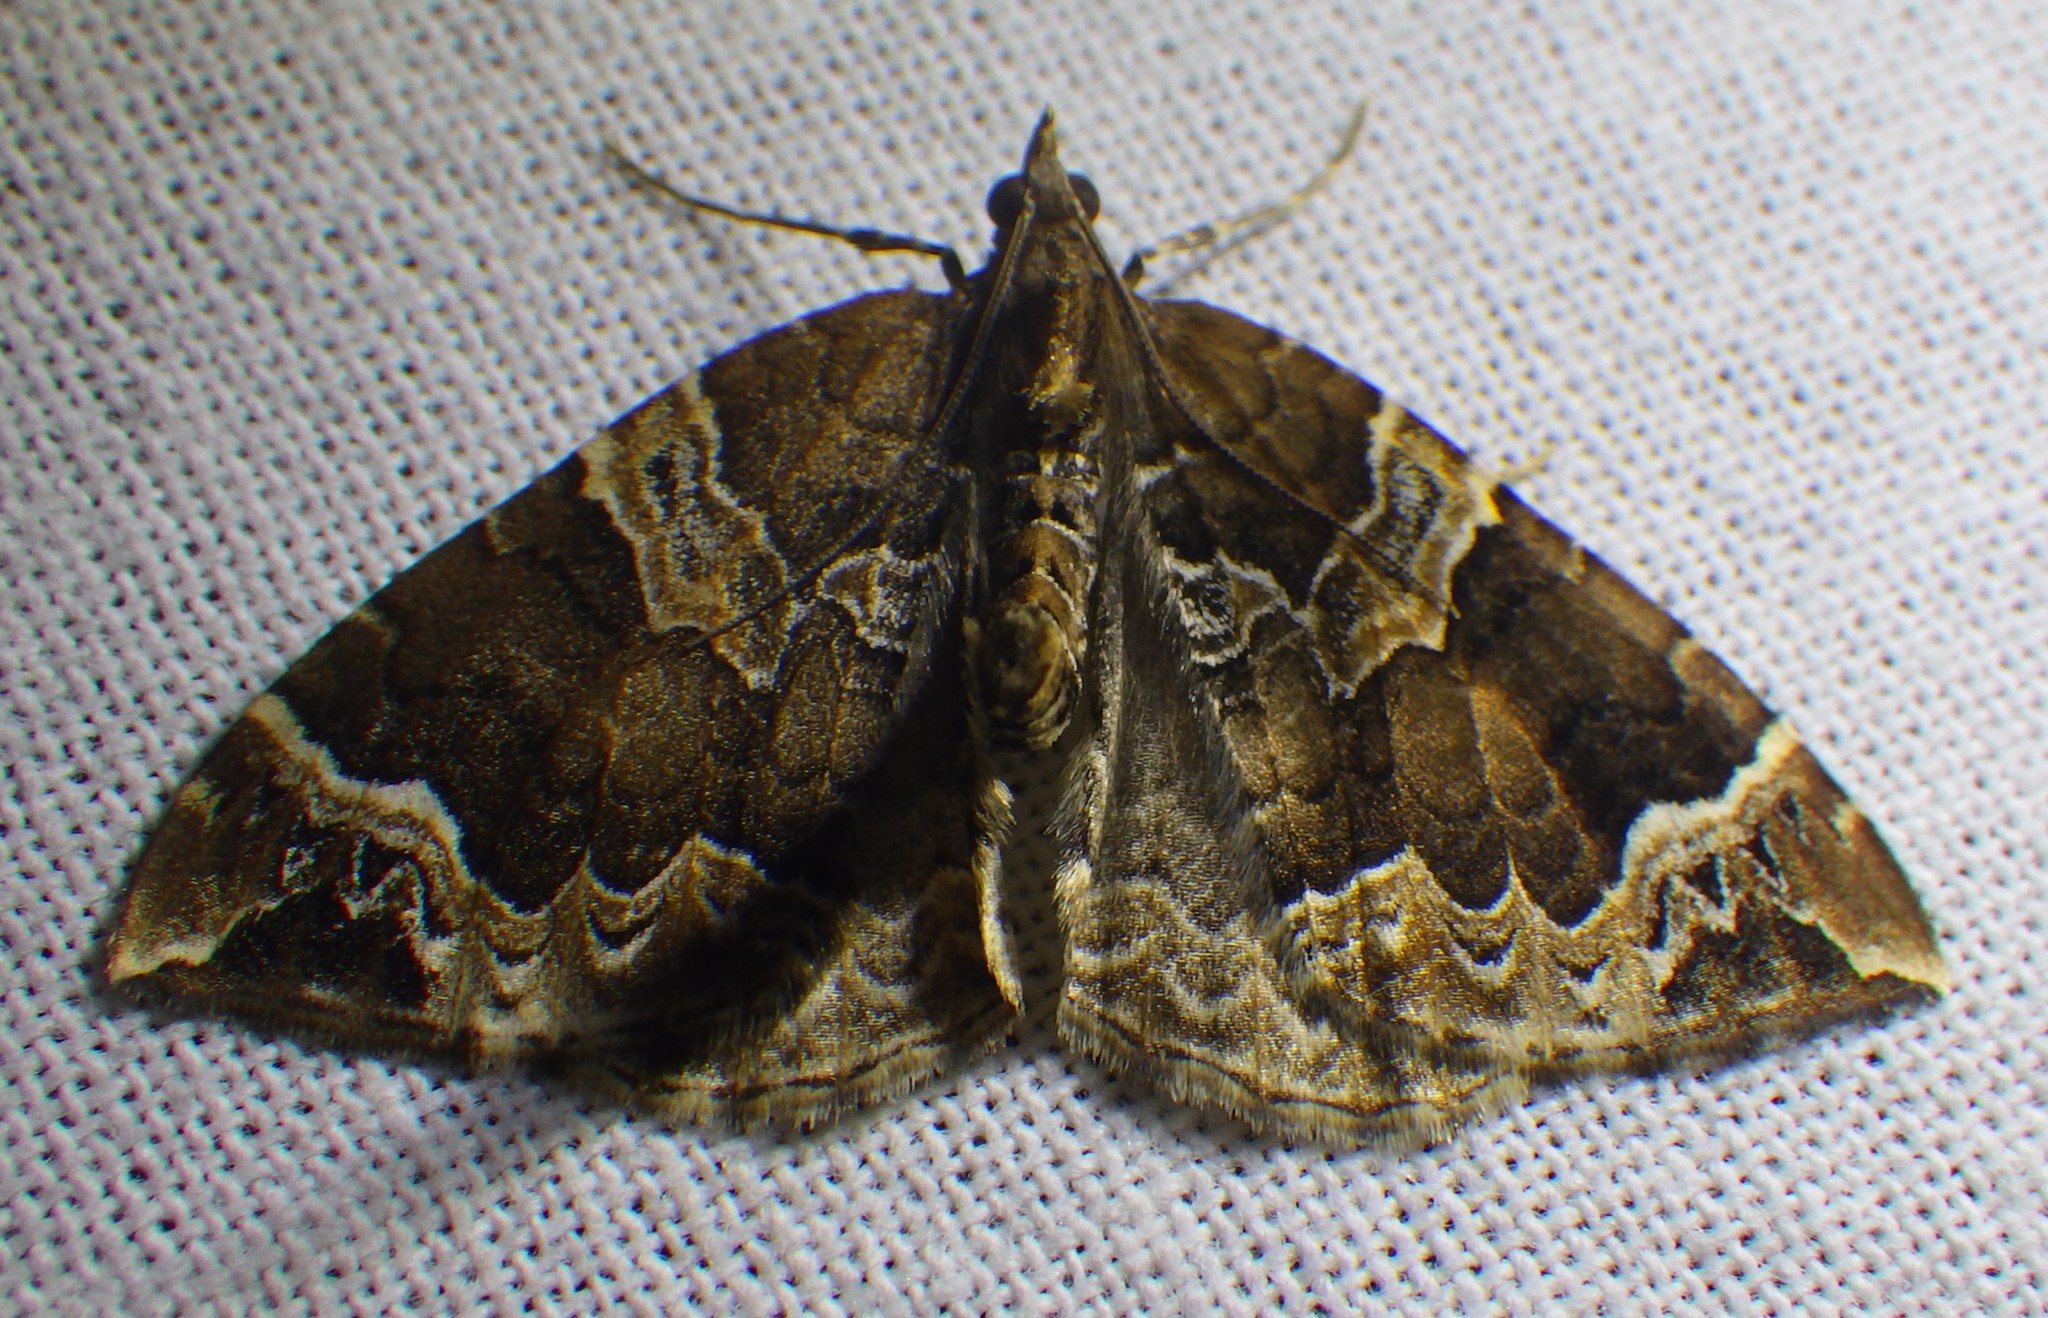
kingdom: Animalia
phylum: Arthropoda
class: Insecta
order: Lepidoptera
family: Geometridae
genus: Eulithis
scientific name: Eulithis prunata
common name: Phoenix
